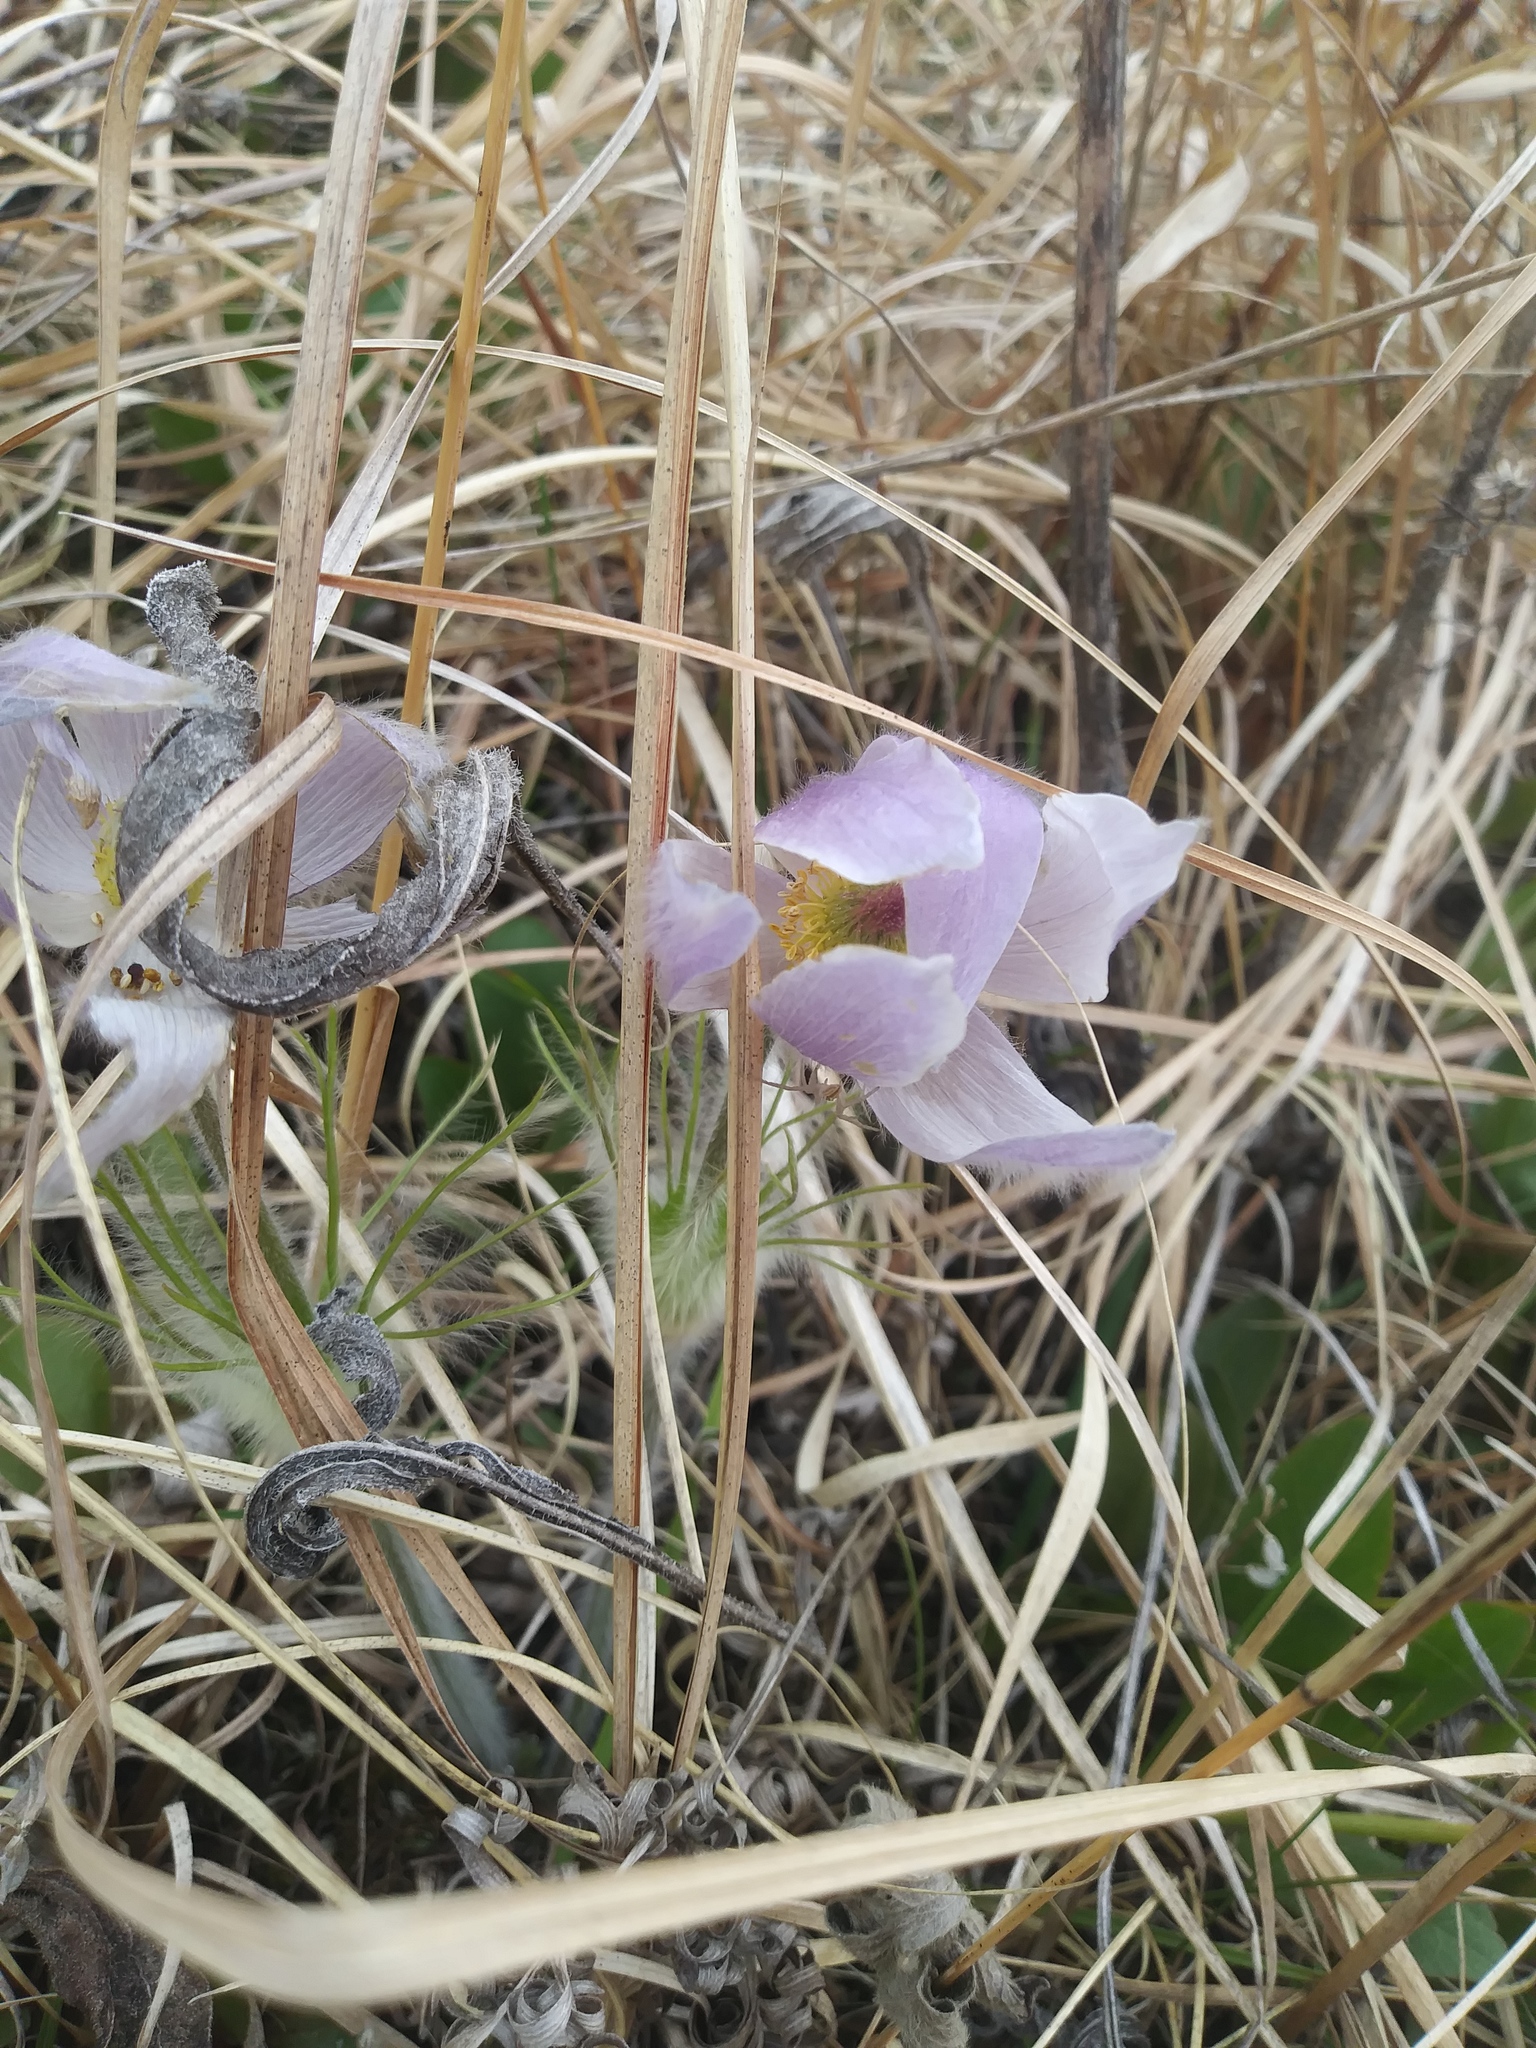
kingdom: Plantae
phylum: Tracheophyta
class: Magnoliopsida
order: Ranunculales
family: Ranunculaceae
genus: Pulsatilla
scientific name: Pulsatilla nuttalliana
